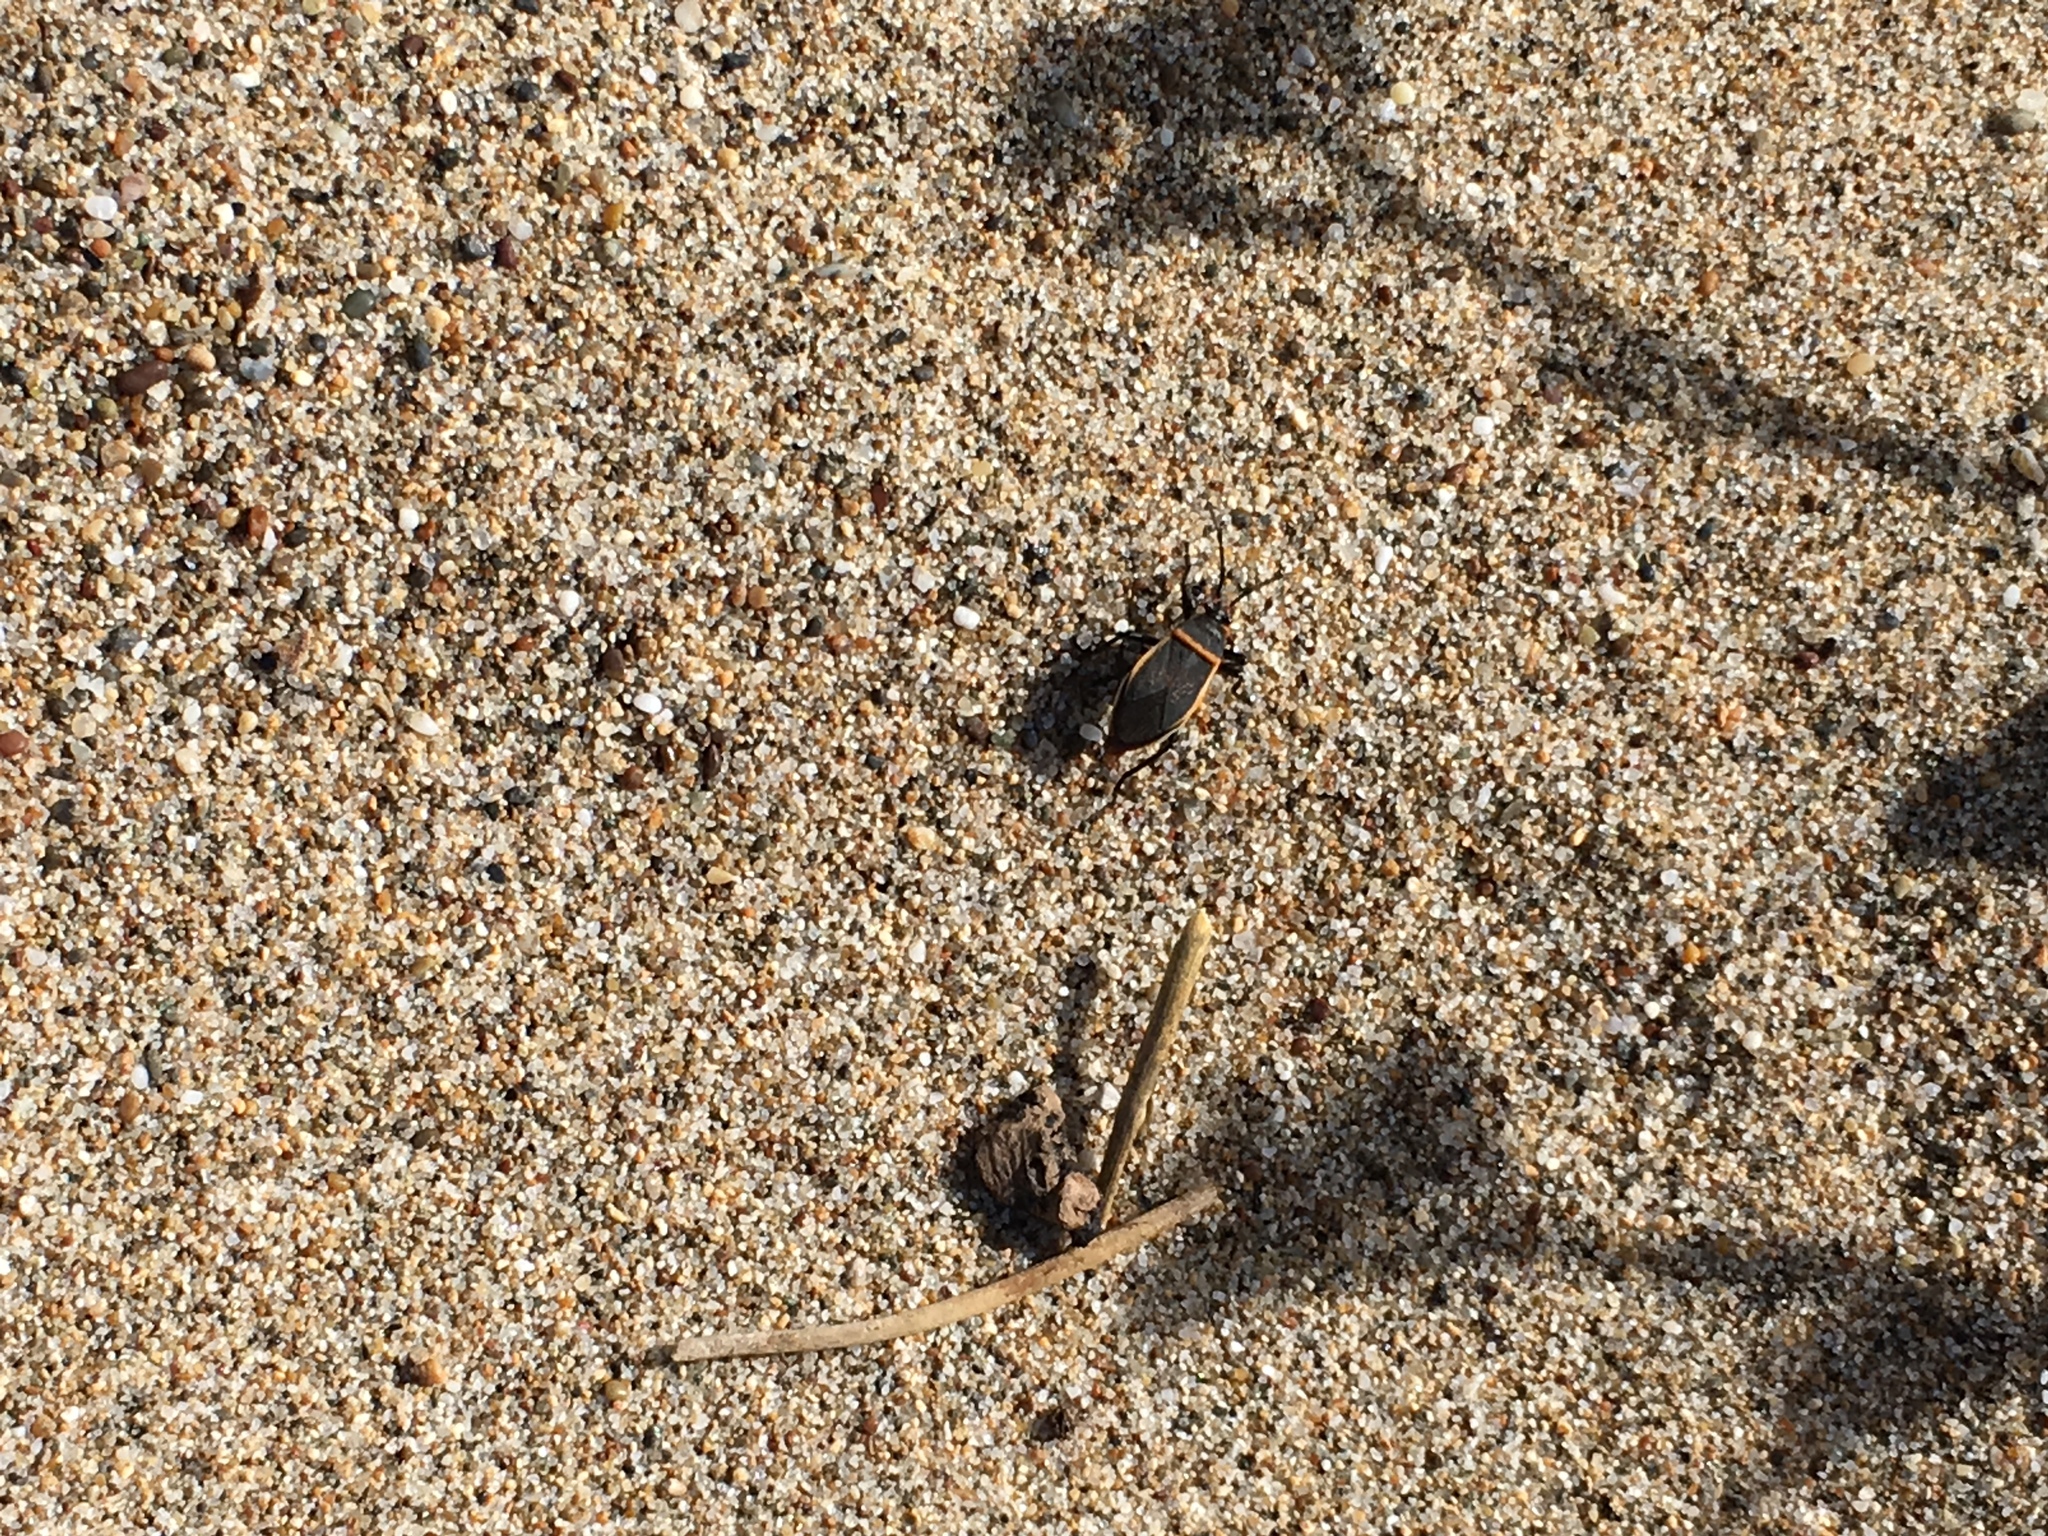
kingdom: Animalia
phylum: Arthropoda
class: Insecta
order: Hemiptera
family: Largidae
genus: Largus
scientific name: Largus californicus
